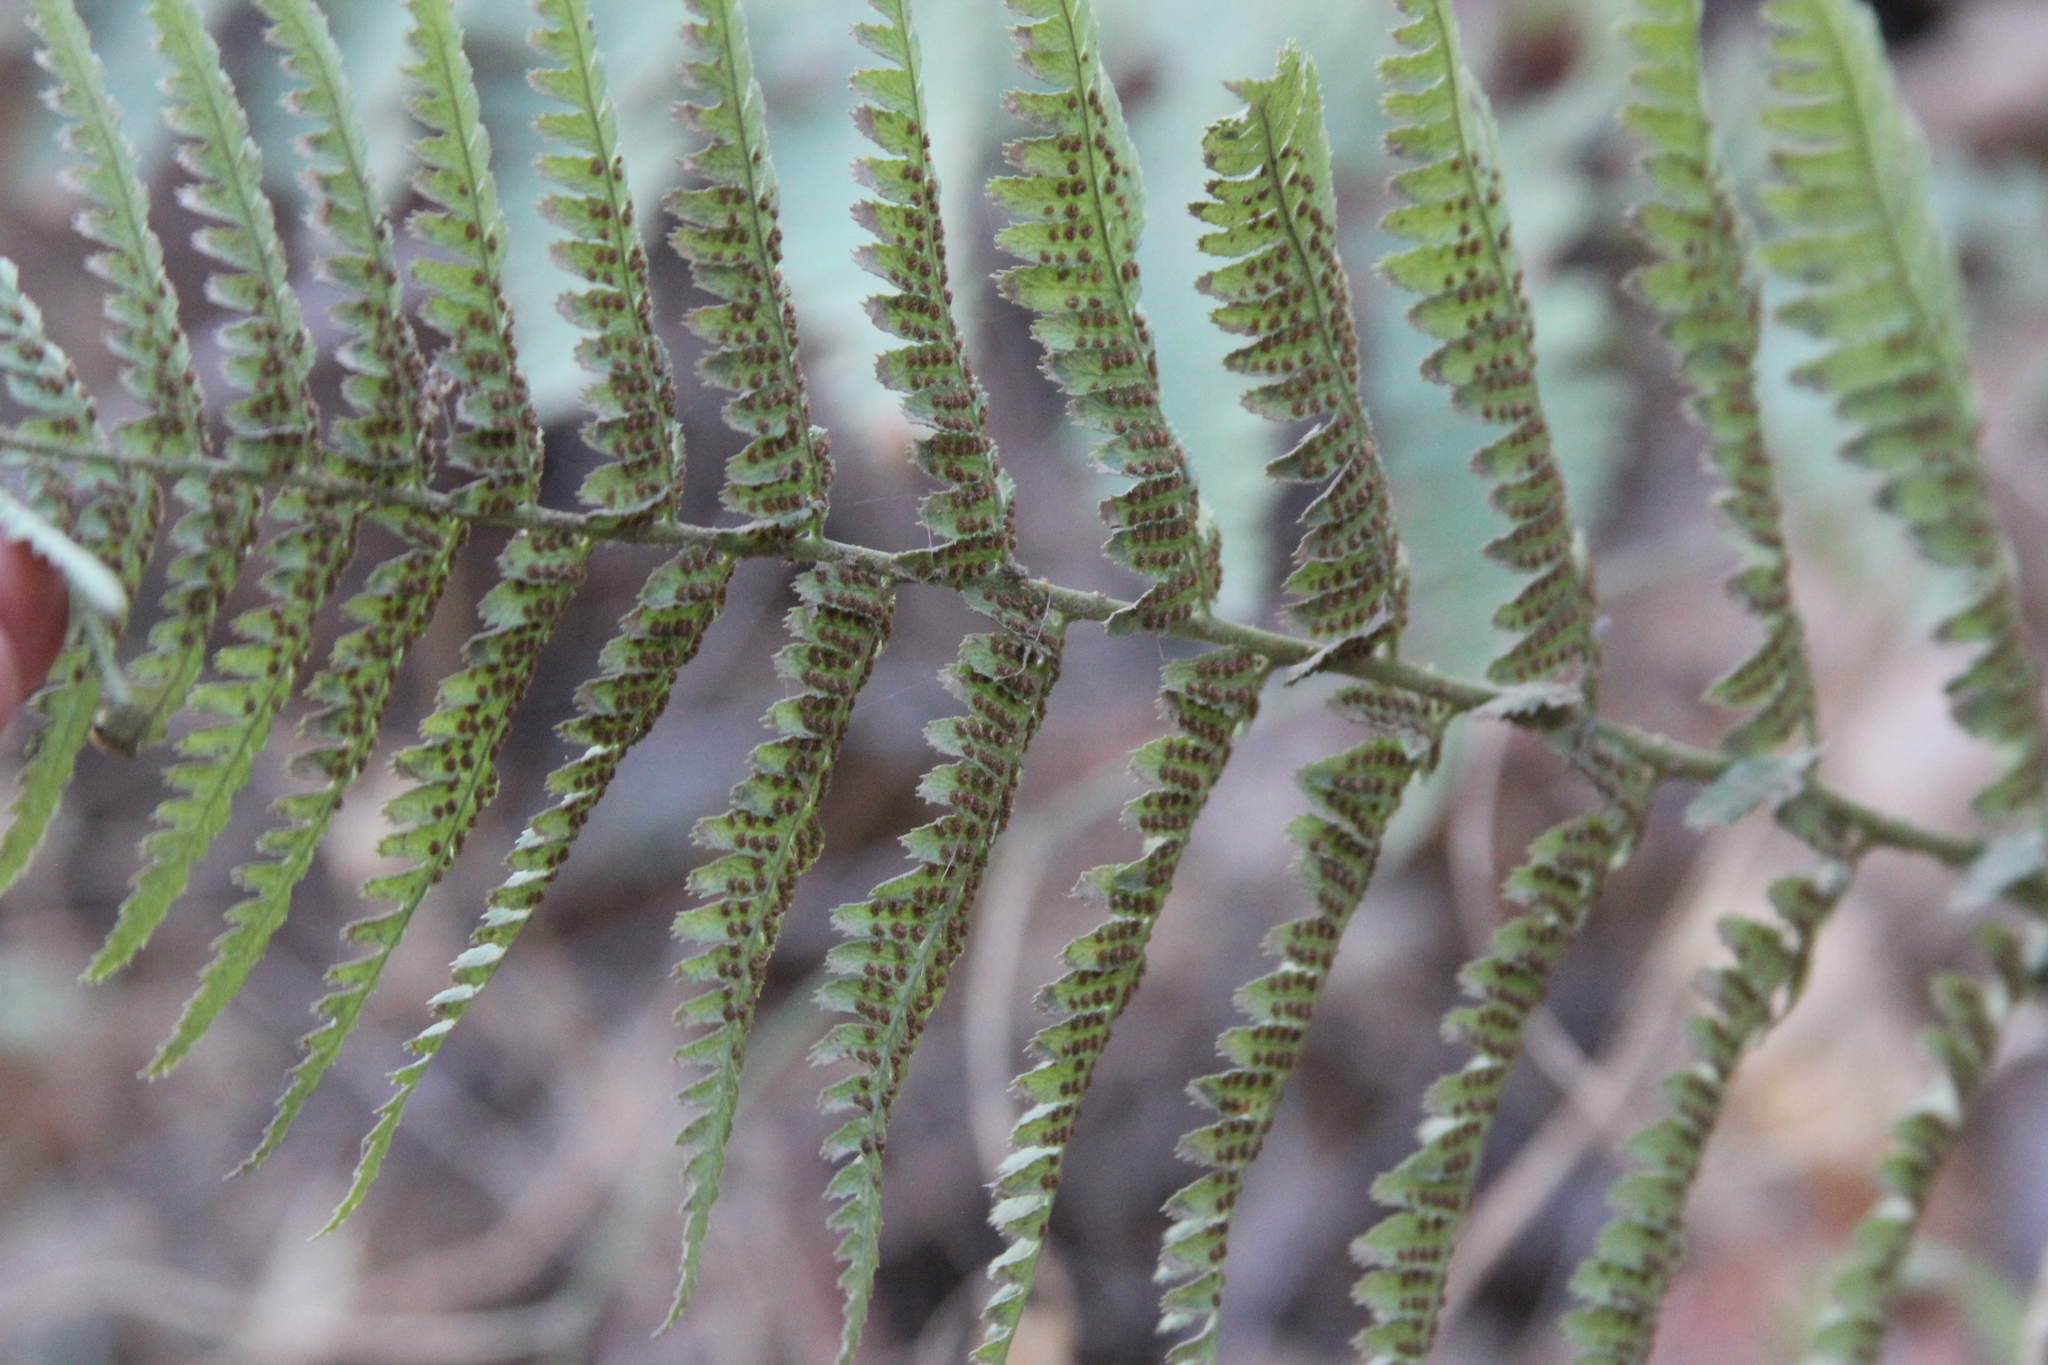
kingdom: Plantae
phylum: Tracheophyta
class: Polypodiopsida
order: Polypodiales
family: Dryopteridaceae
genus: Dryopteris
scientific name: Dryopteris arguta
